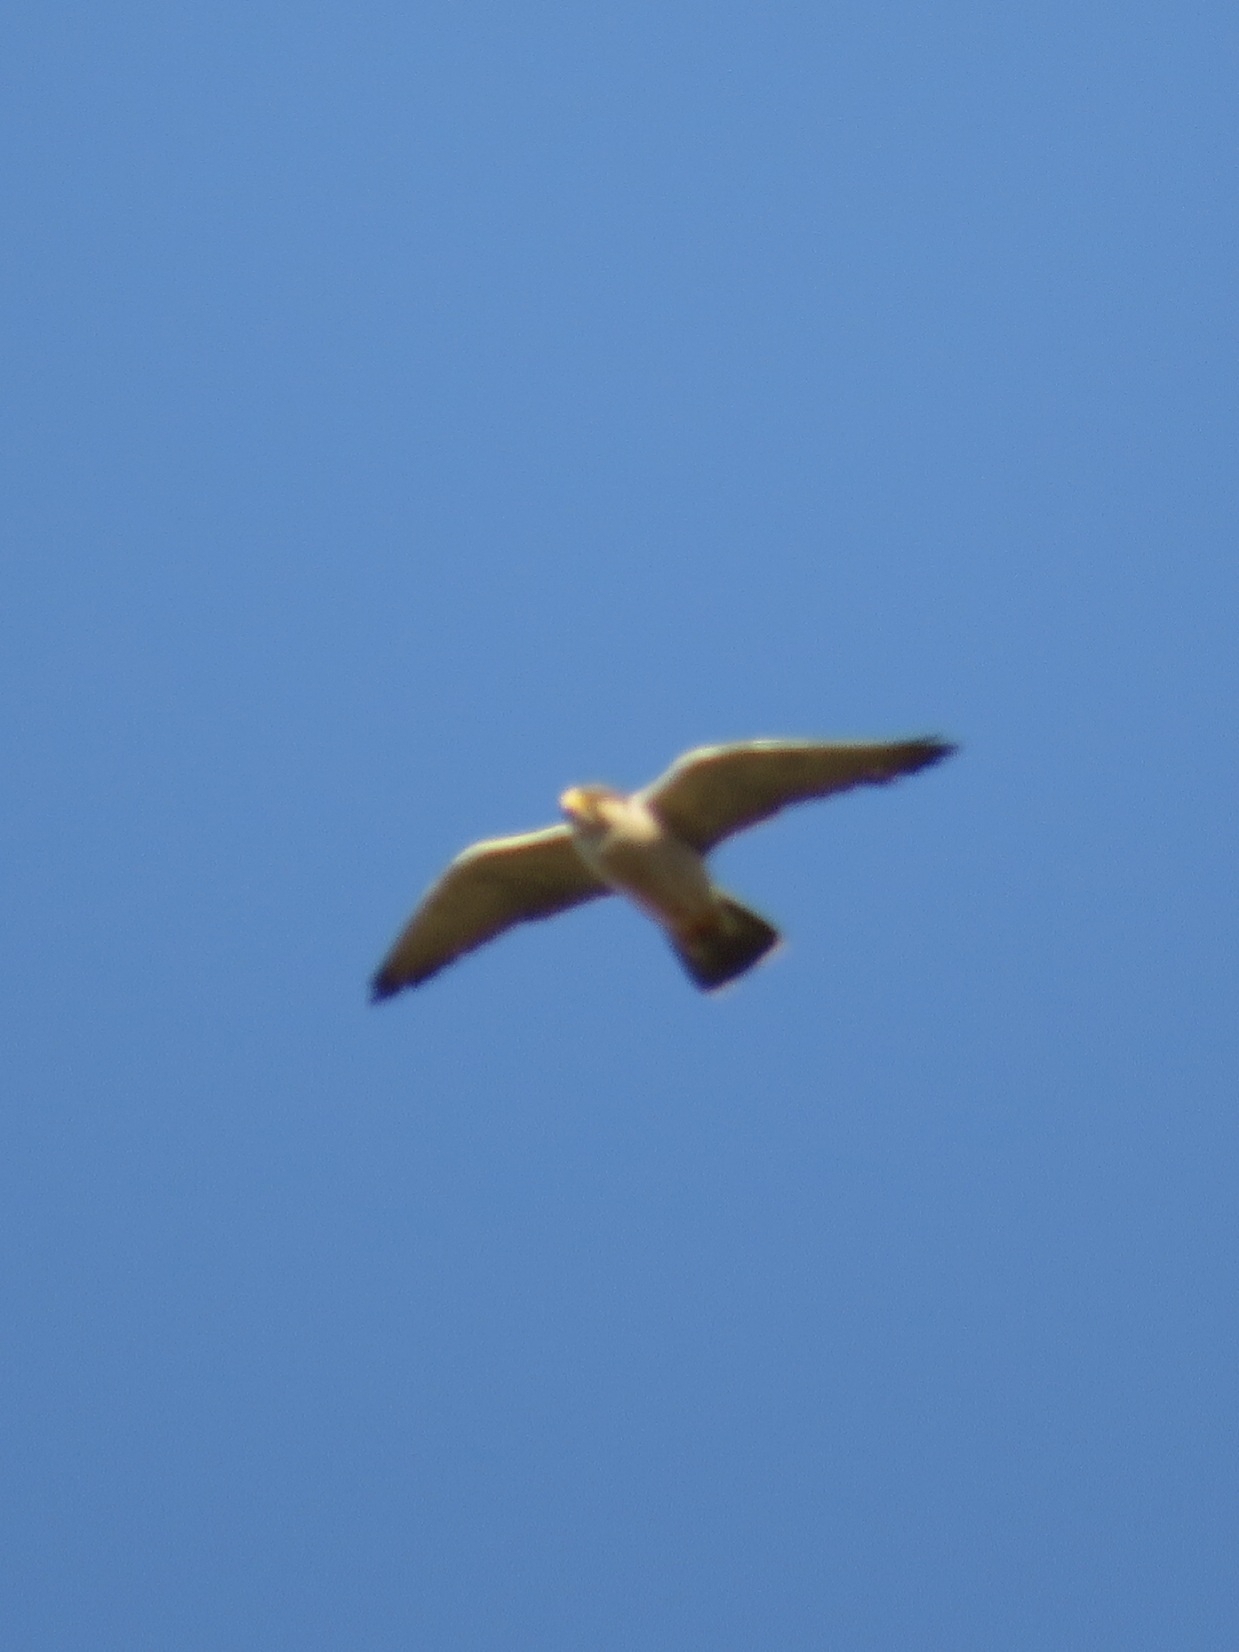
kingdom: Animalia
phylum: Chordata
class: Aves
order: Falconiformes
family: Falconidae
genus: Falco
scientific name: Falco biarmicus
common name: Lanner falcon
